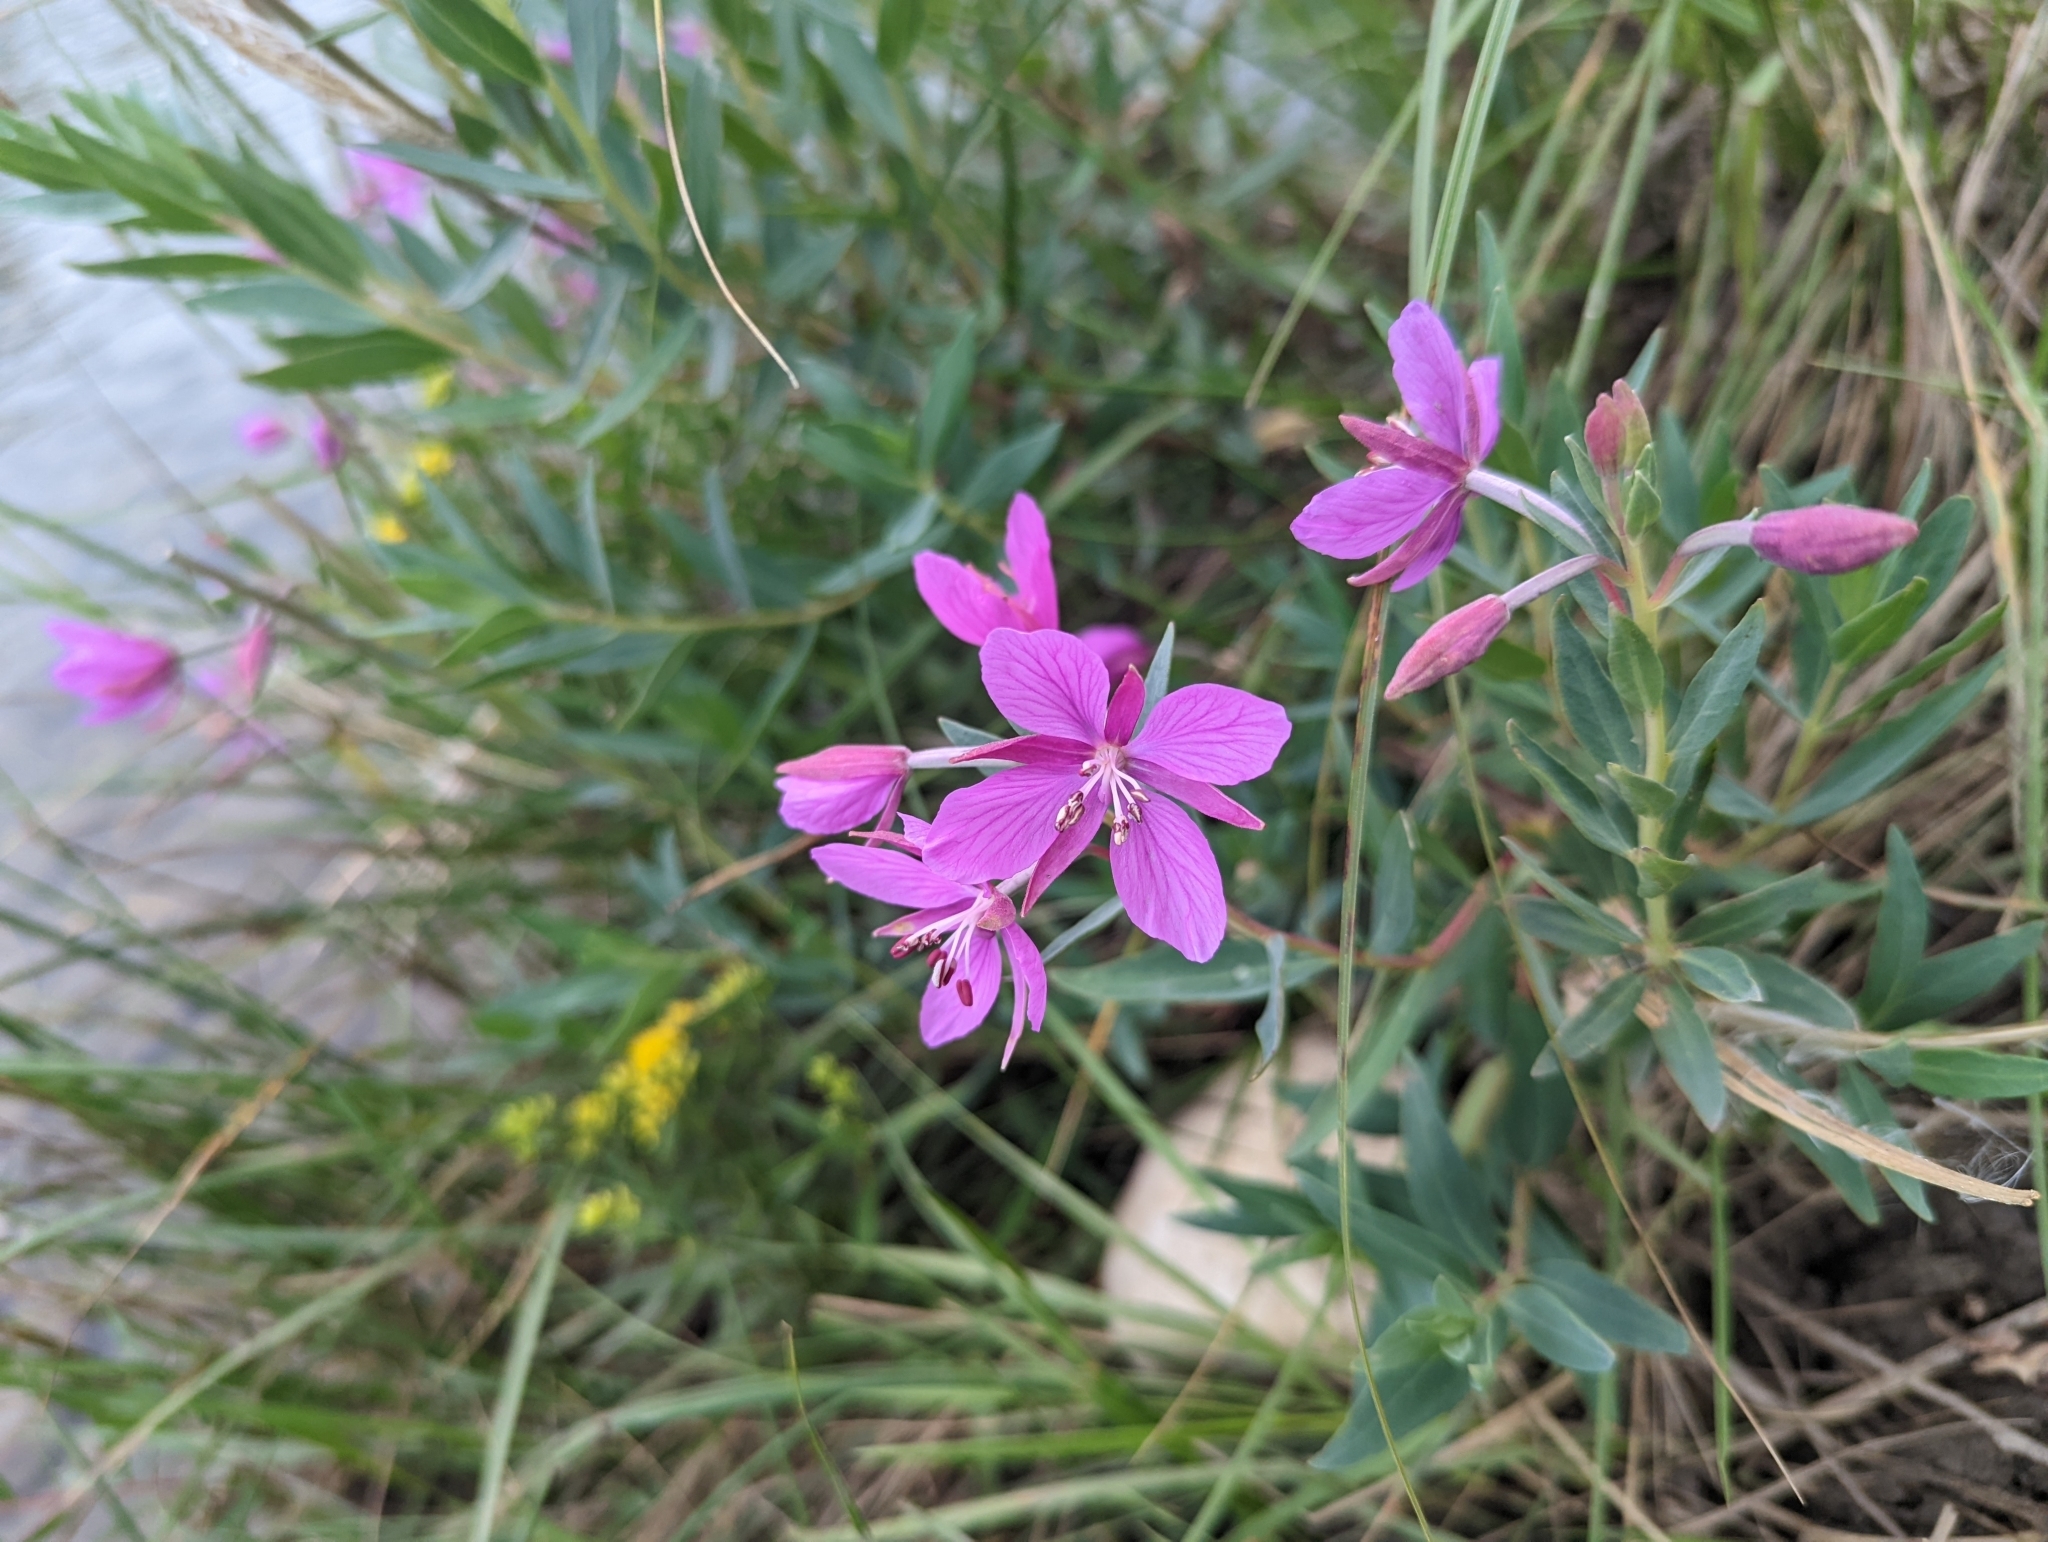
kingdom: Plantae
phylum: Tracheophyta
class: Magnoliopsida
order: Myrtales
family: Onagraceae
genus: Chamaenerion
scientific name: Chamaenerion latifolium
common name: Dwarf fireweed
